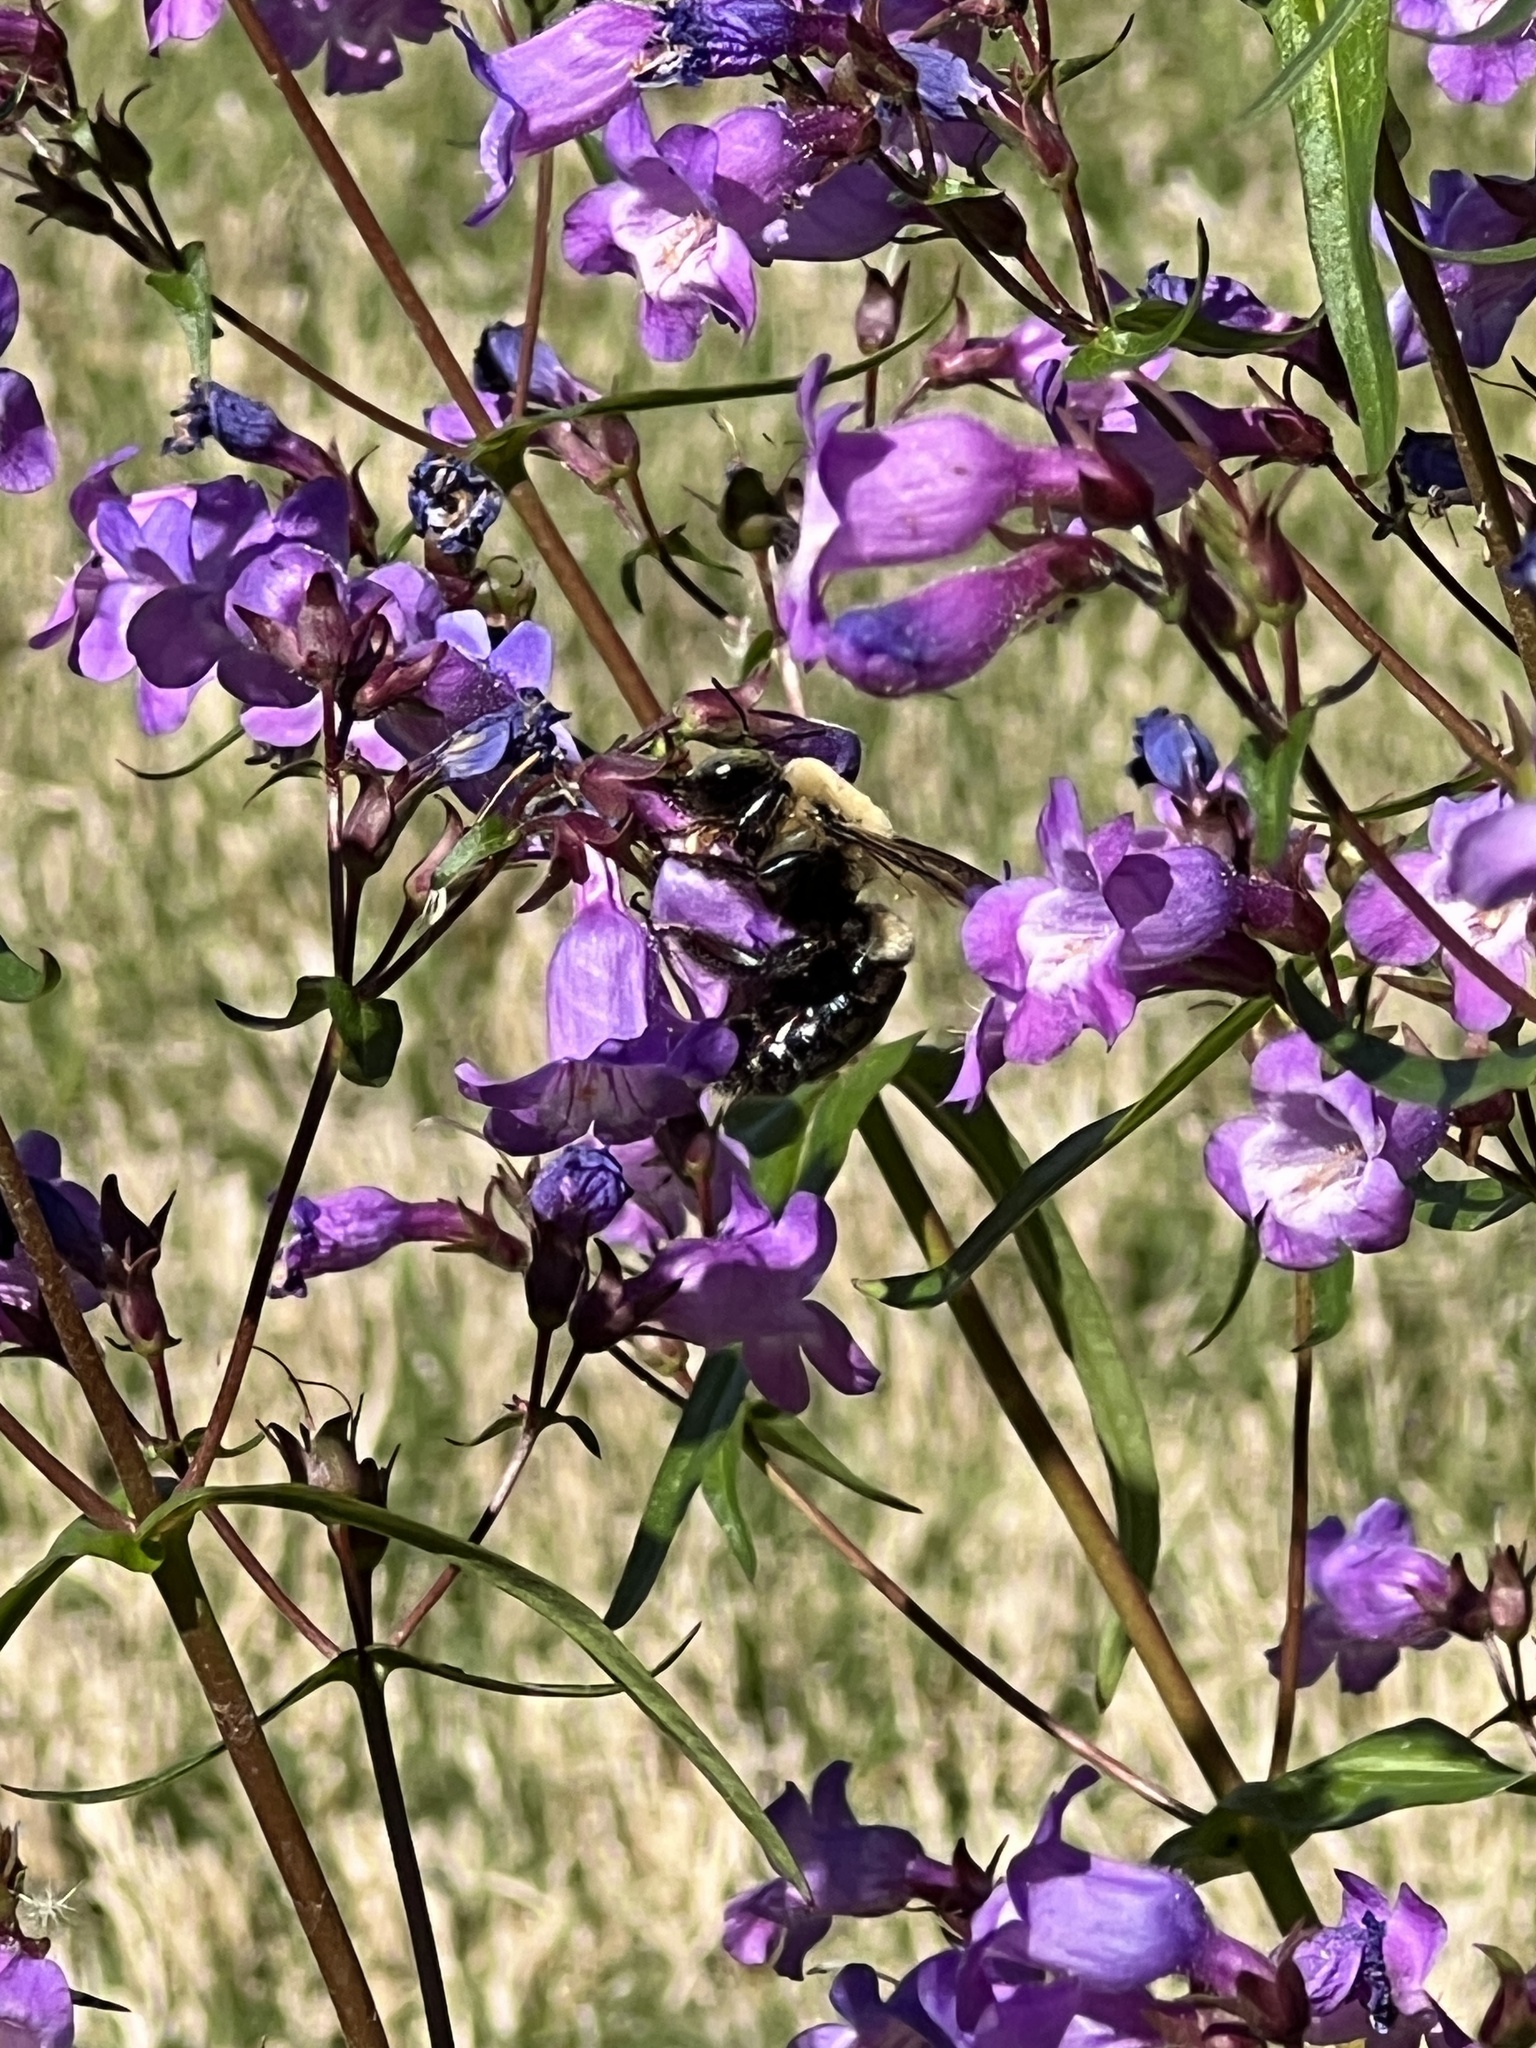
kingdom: Animalia
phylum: Arthropoda
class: Insecta
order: Hymenoptera
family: Apidae
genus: Xylocopa
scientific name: Xylocopa virginica
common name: Carpenter bee
